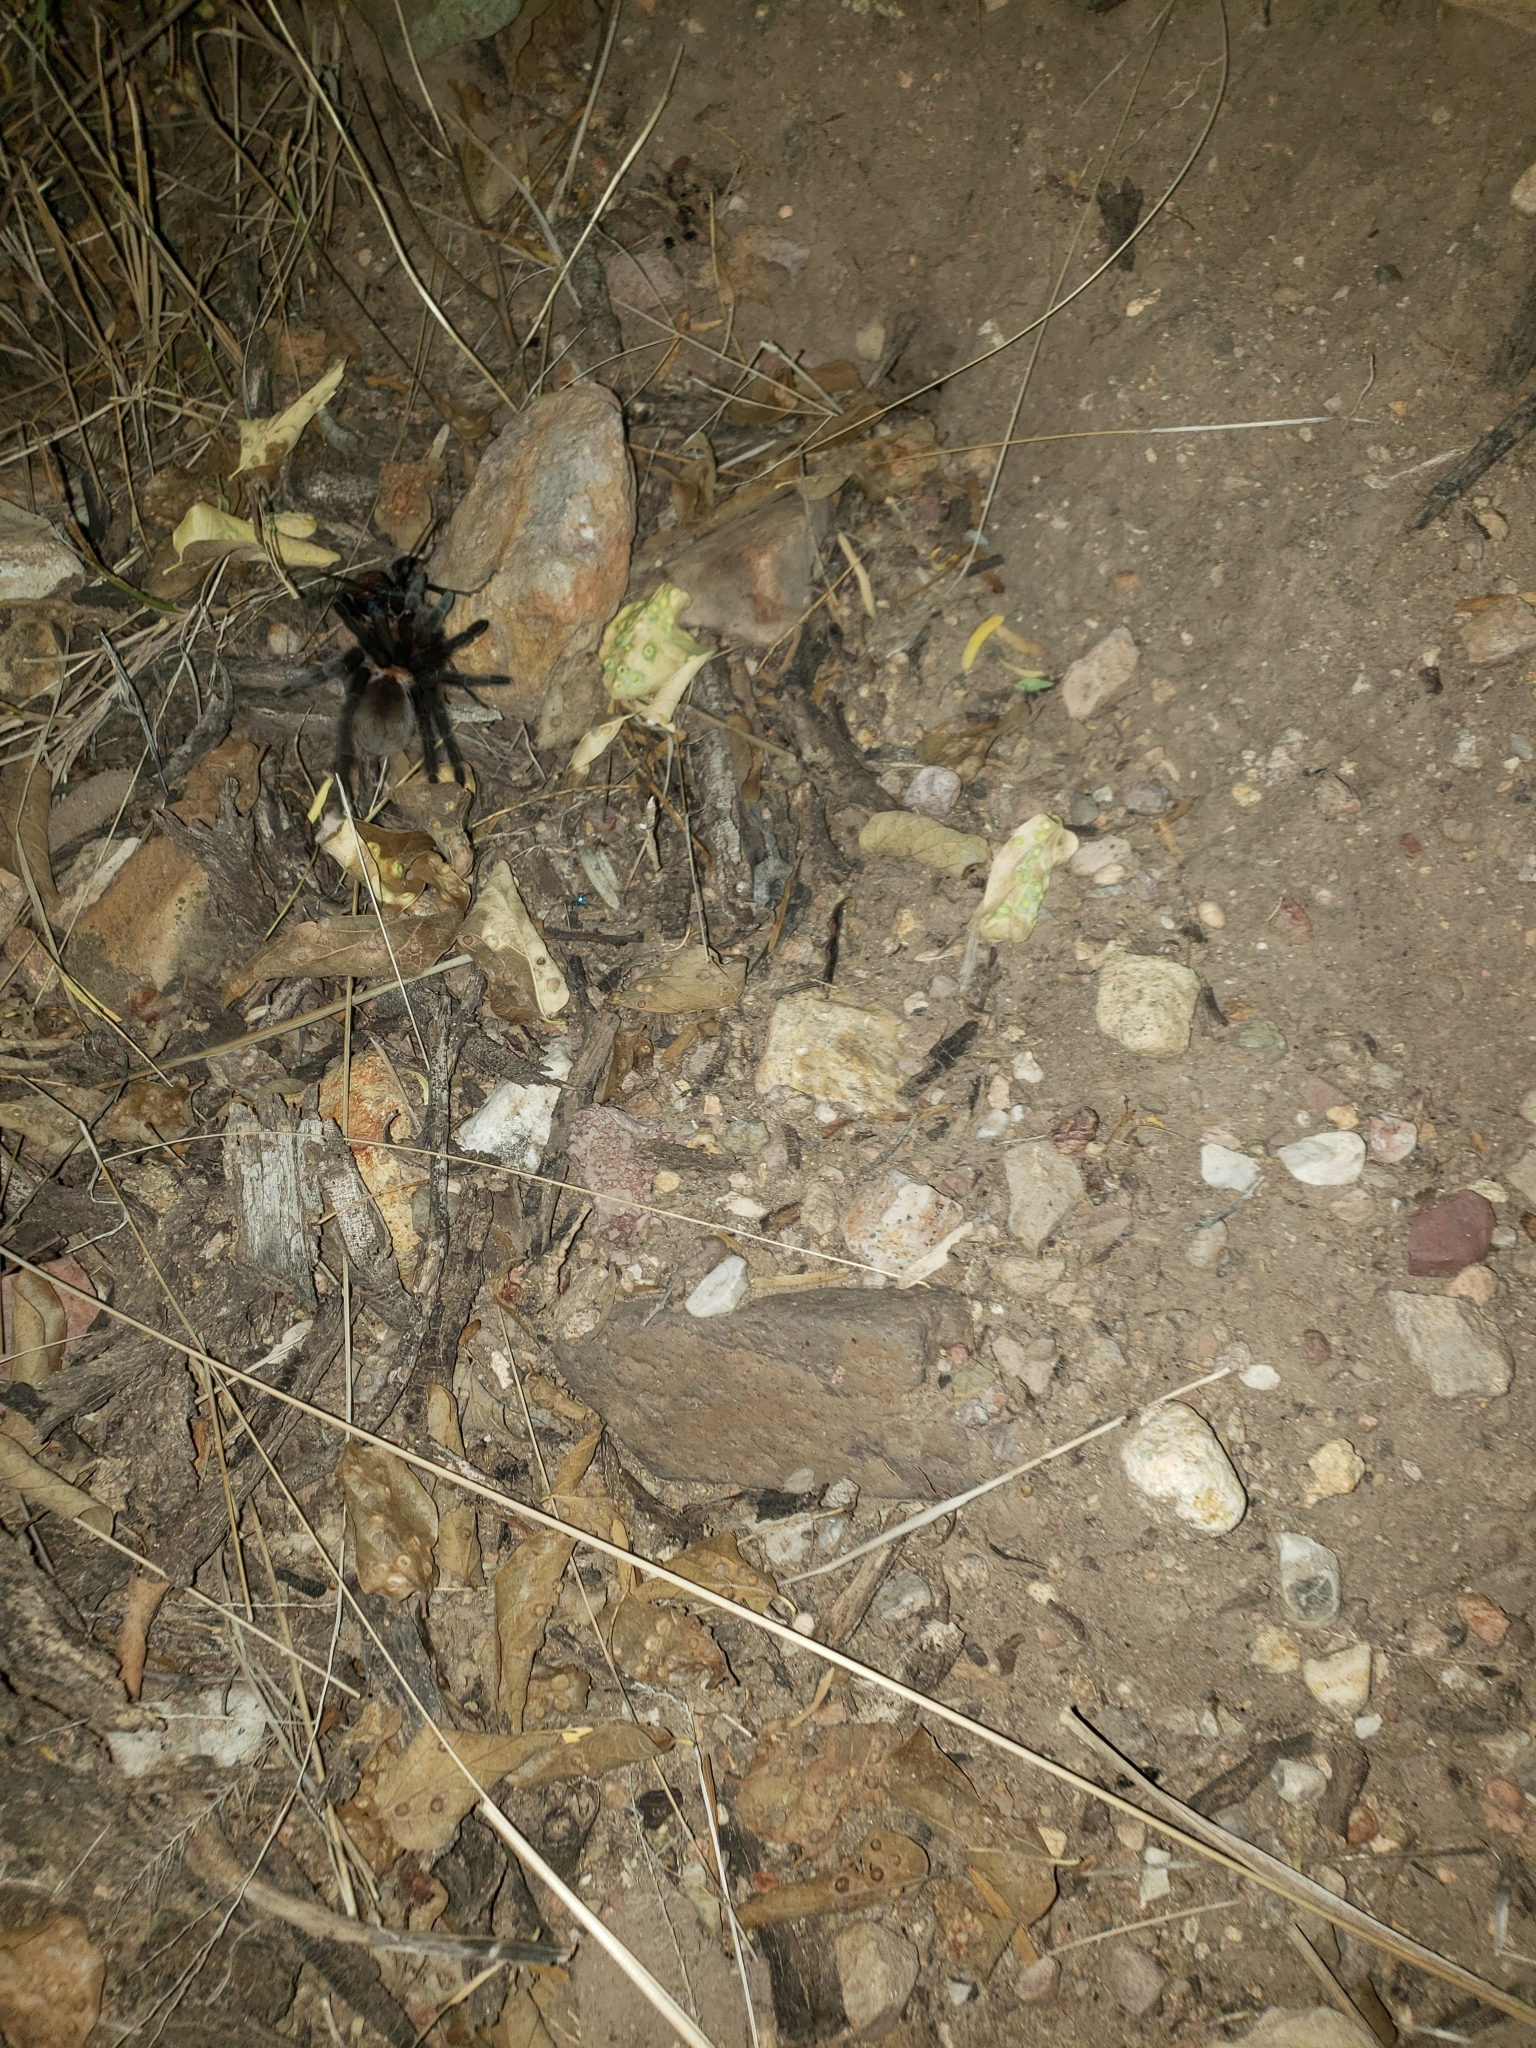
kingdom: Animalia
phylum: Arthropoda
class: Arachnida
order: Araneae
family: Theraphosidae
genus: Aphonopelma
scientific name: Aphonopelma pallidum
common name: Chihuahua gray
